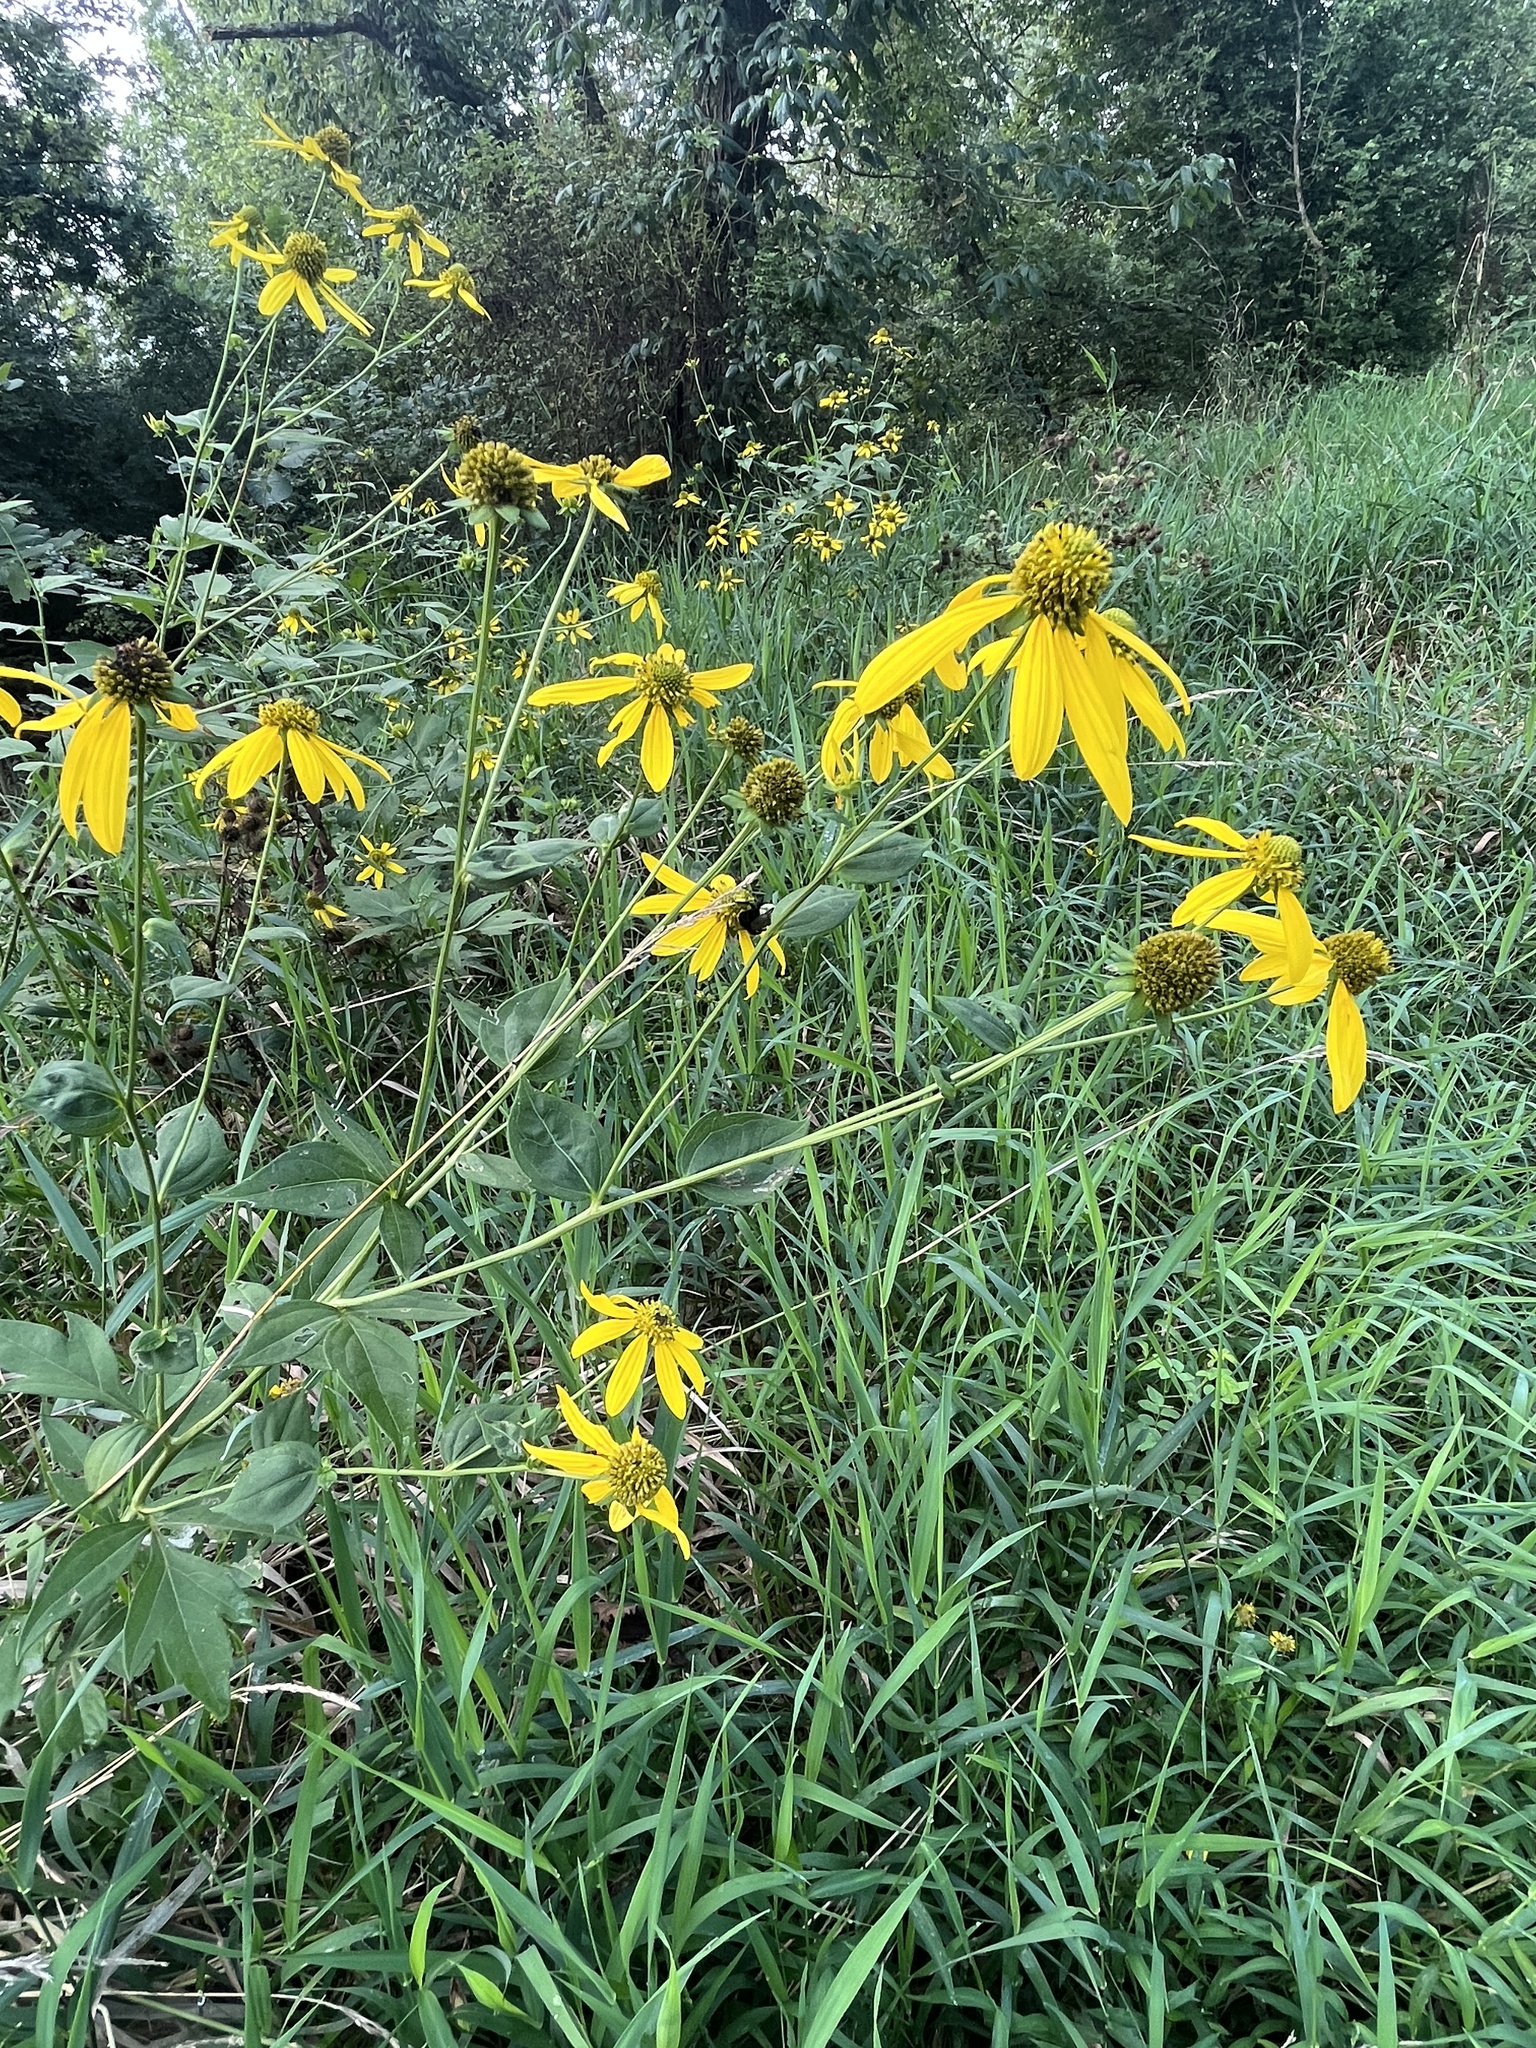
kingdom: Plantae
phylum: Tracheophyta
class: Magnoliopsida
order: Asterales
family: Asteraceae
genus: Rudbeckia
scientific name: Rudbeckia laciniata
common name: Coneflower
